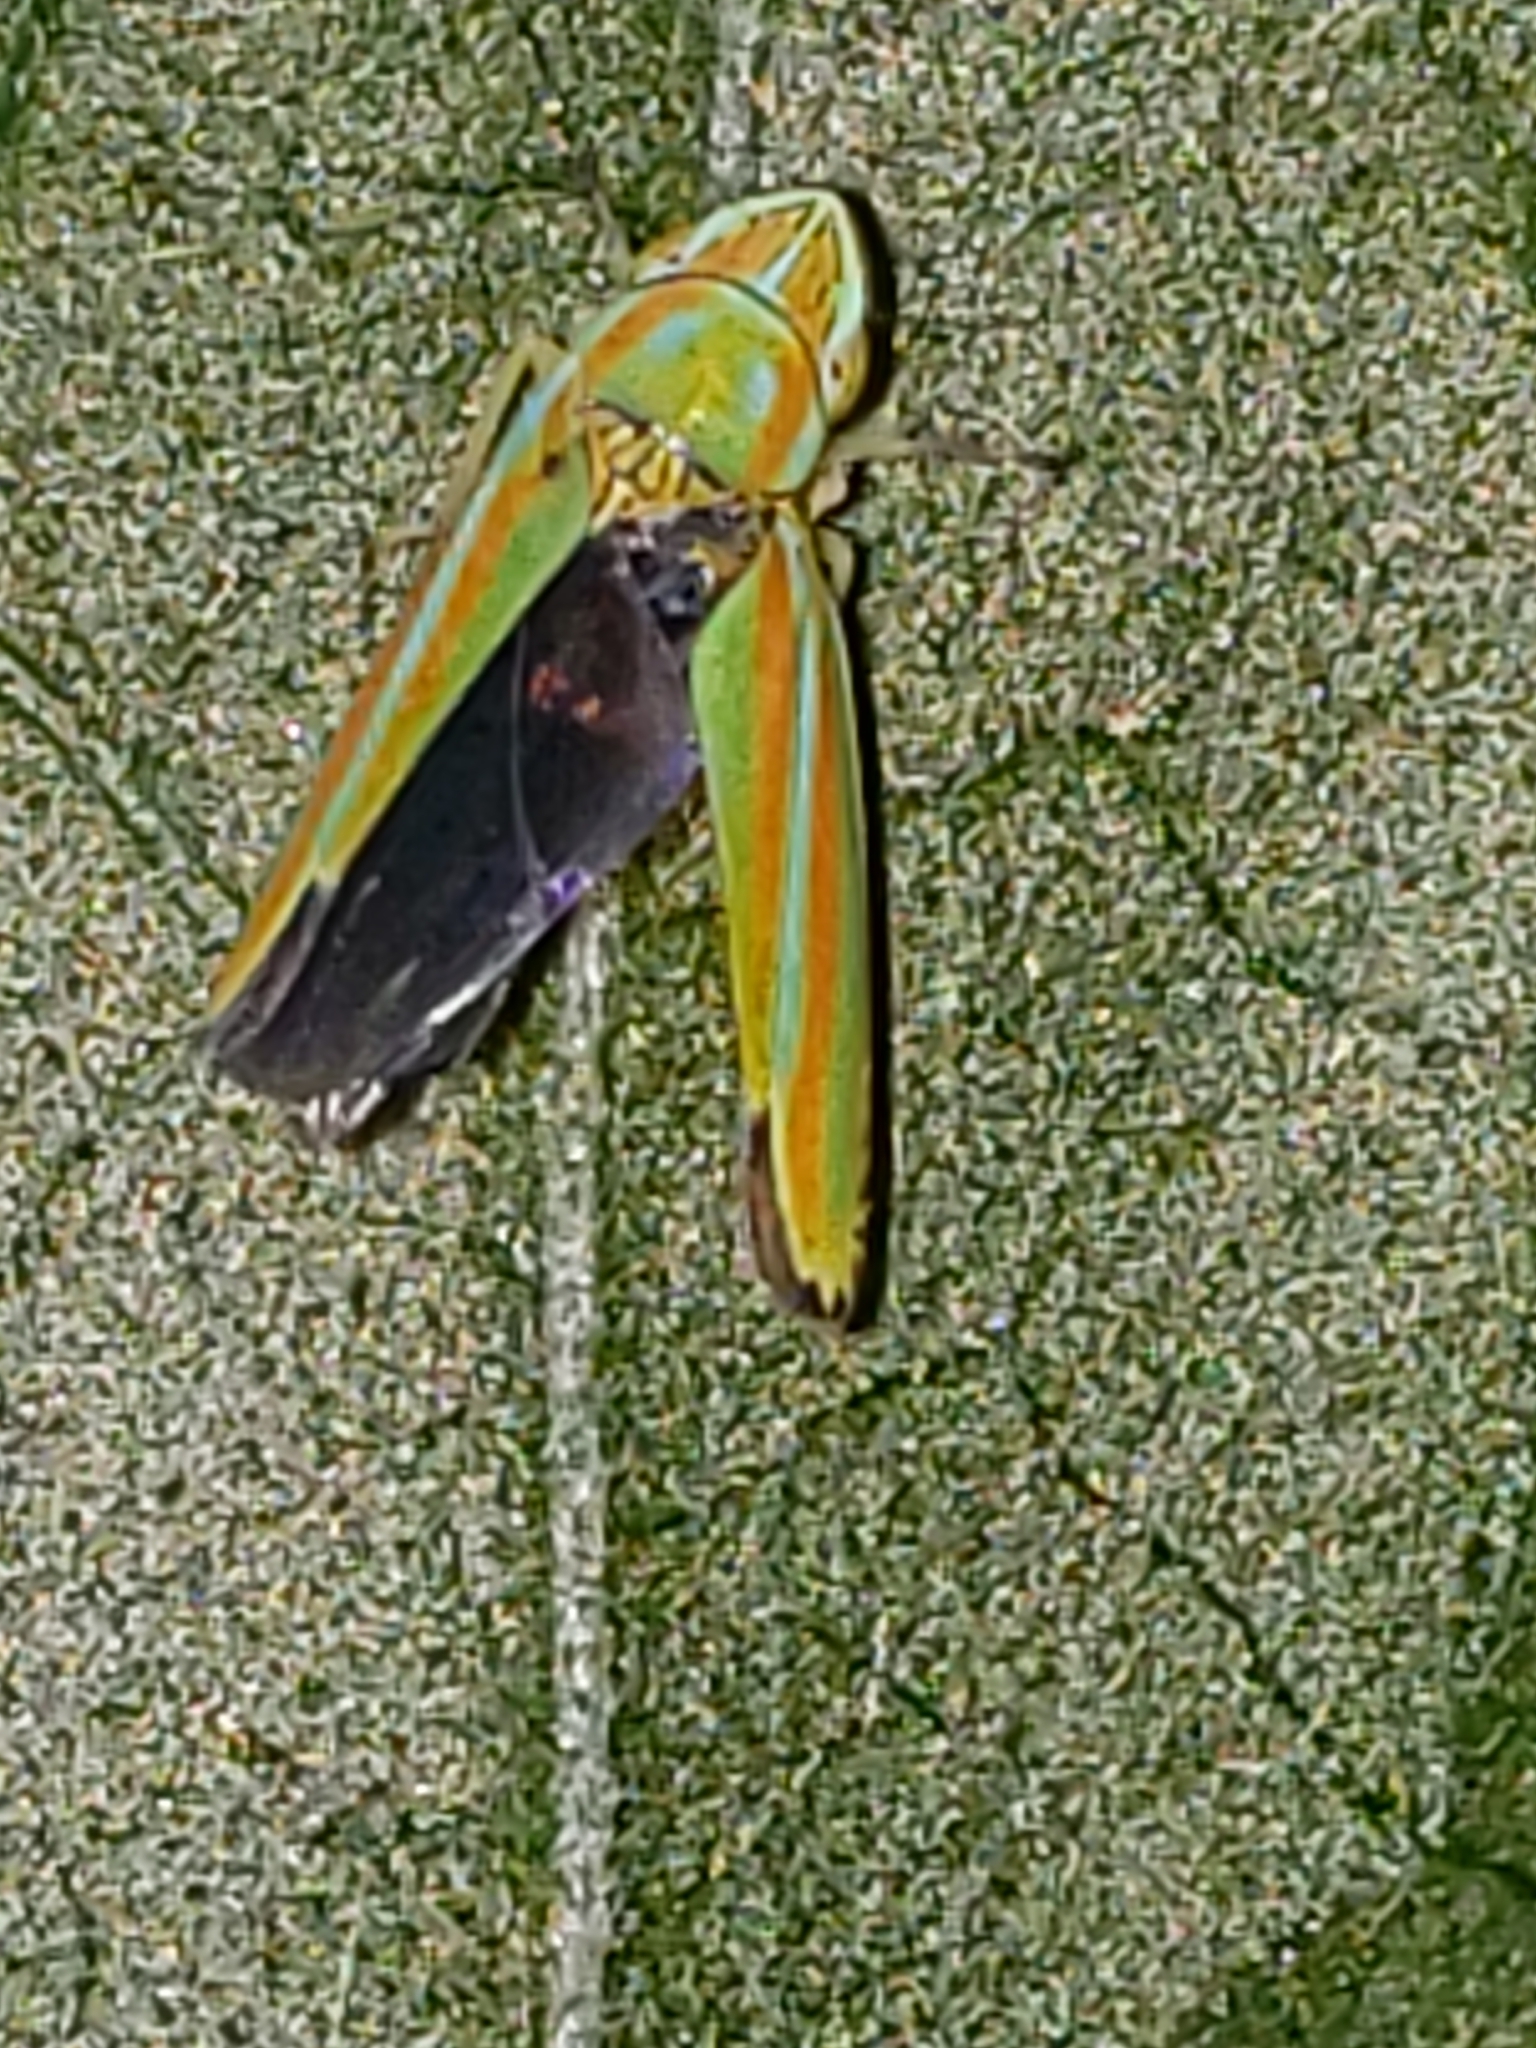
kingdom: Animalia
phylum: Arthropoda
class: Insecta
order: Hemiptera
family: Cicadellidae
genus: Graphocephala
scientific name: Graphocephala versuta
